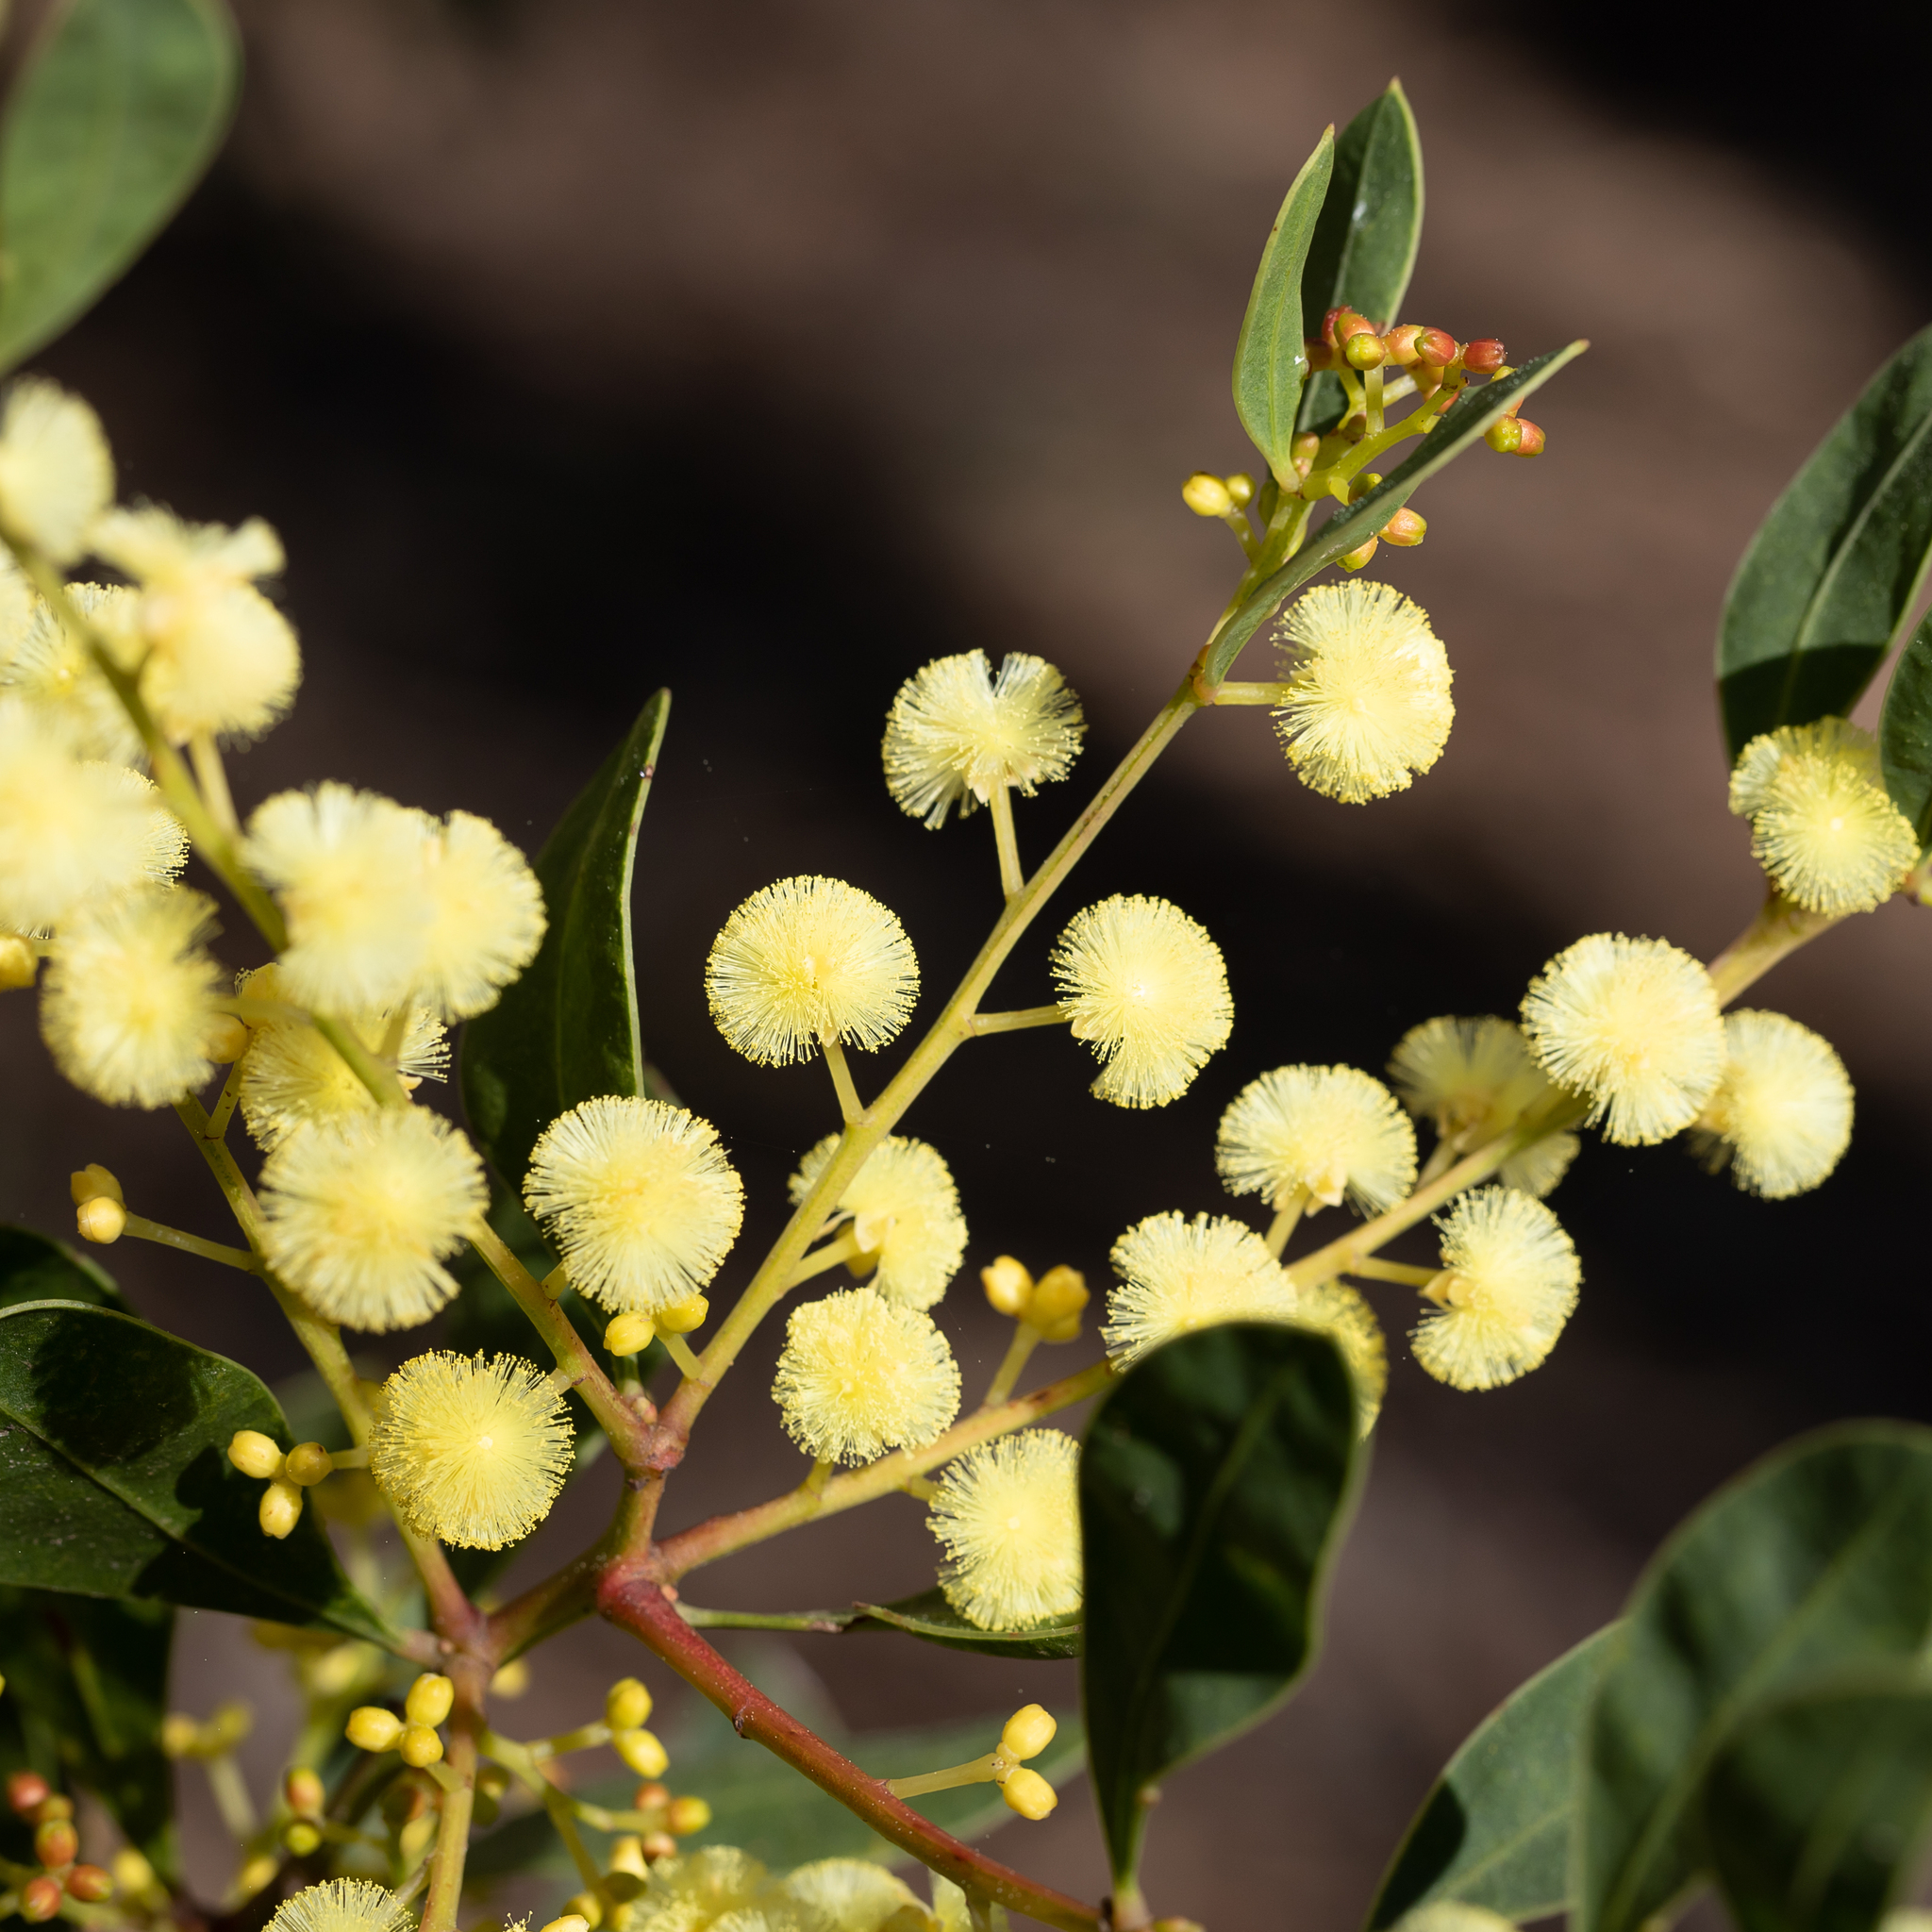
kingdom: Plantae
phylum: Tracheophyta
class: Magnoliopsida
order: Fabales
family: Fabaceae
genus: Acacia
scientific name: Acacia myrtifolia
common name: Myrtle wattle
